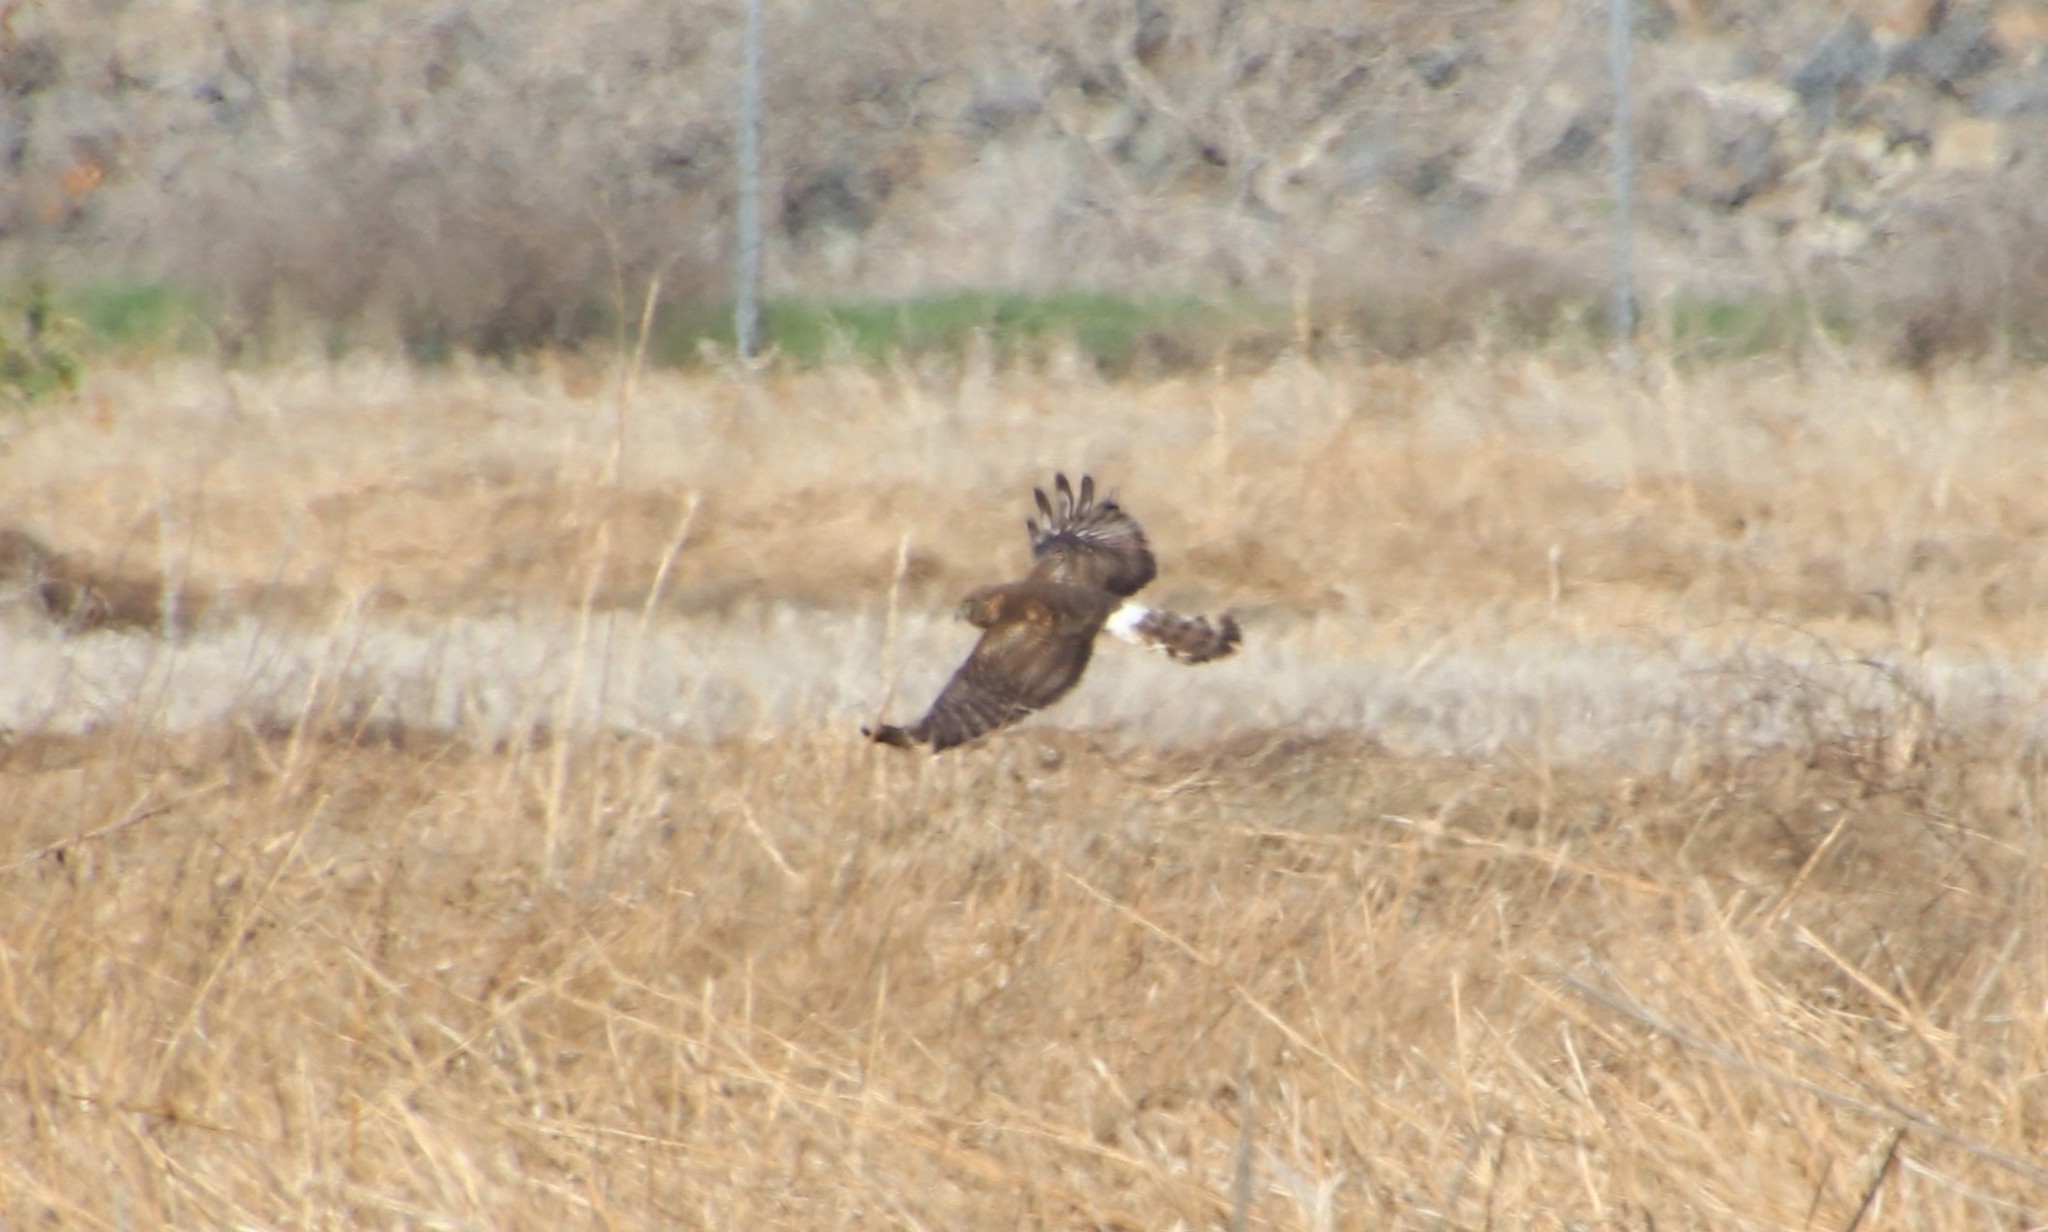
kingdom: Animalia
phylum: Chordata
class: Aves
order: Accipitriformes
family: Accipitridae
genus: Circus
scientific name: Circus cyaneus
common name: Hen harrier
